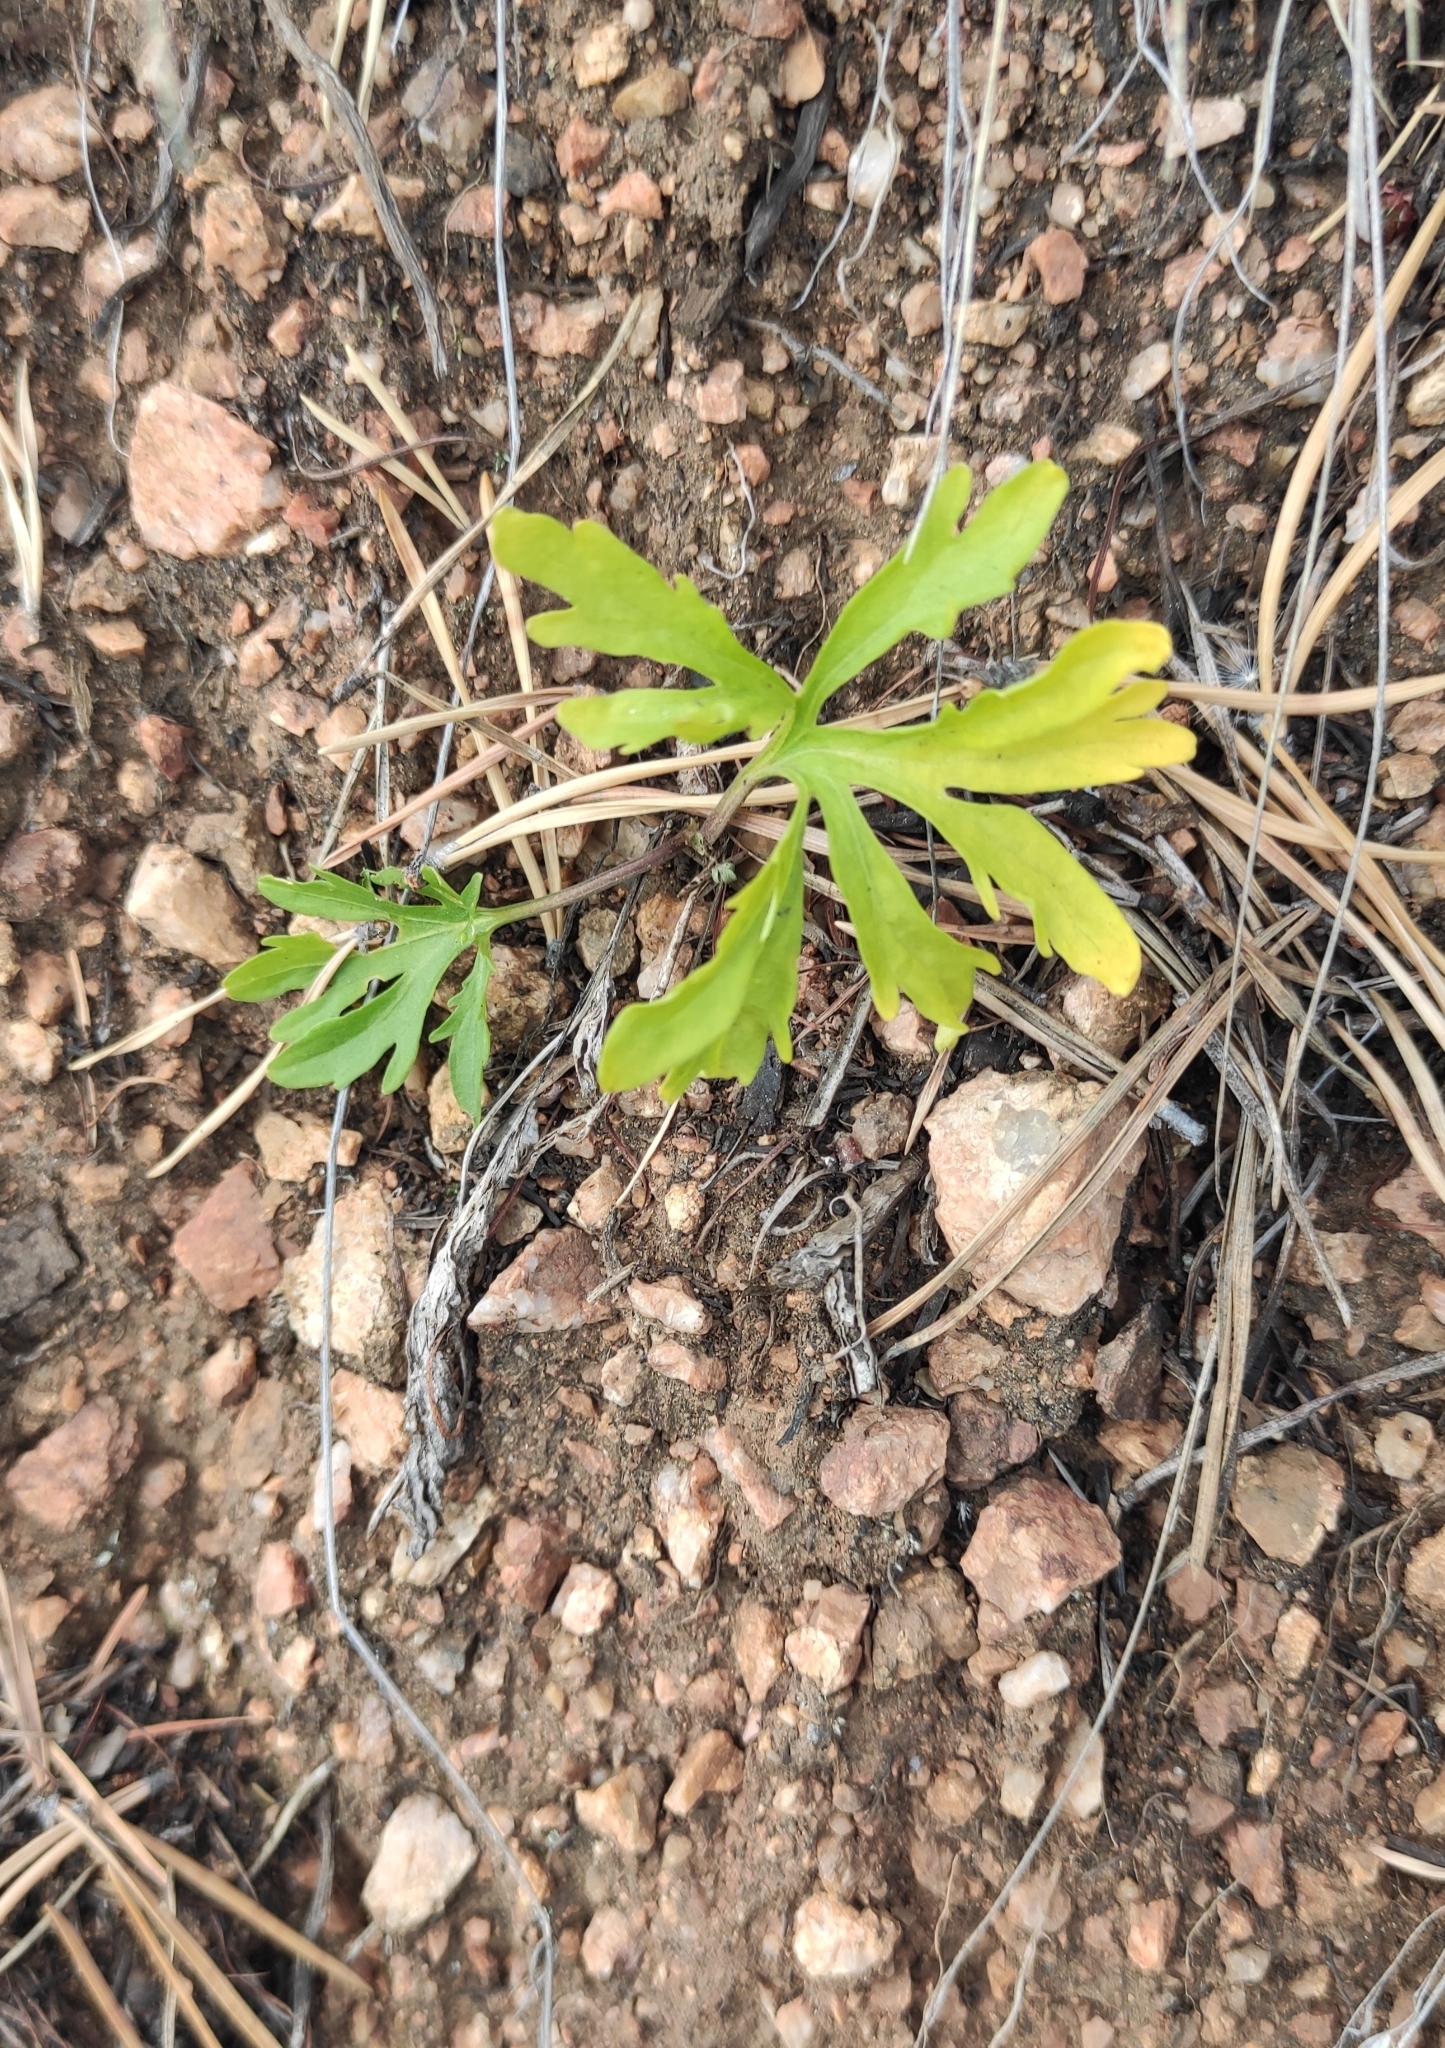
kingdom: Plantae
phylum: Tracheophyta
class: Magnoliopsida
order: Malpighiales
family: Violaceae
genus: Viola
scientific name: Viola multifida
